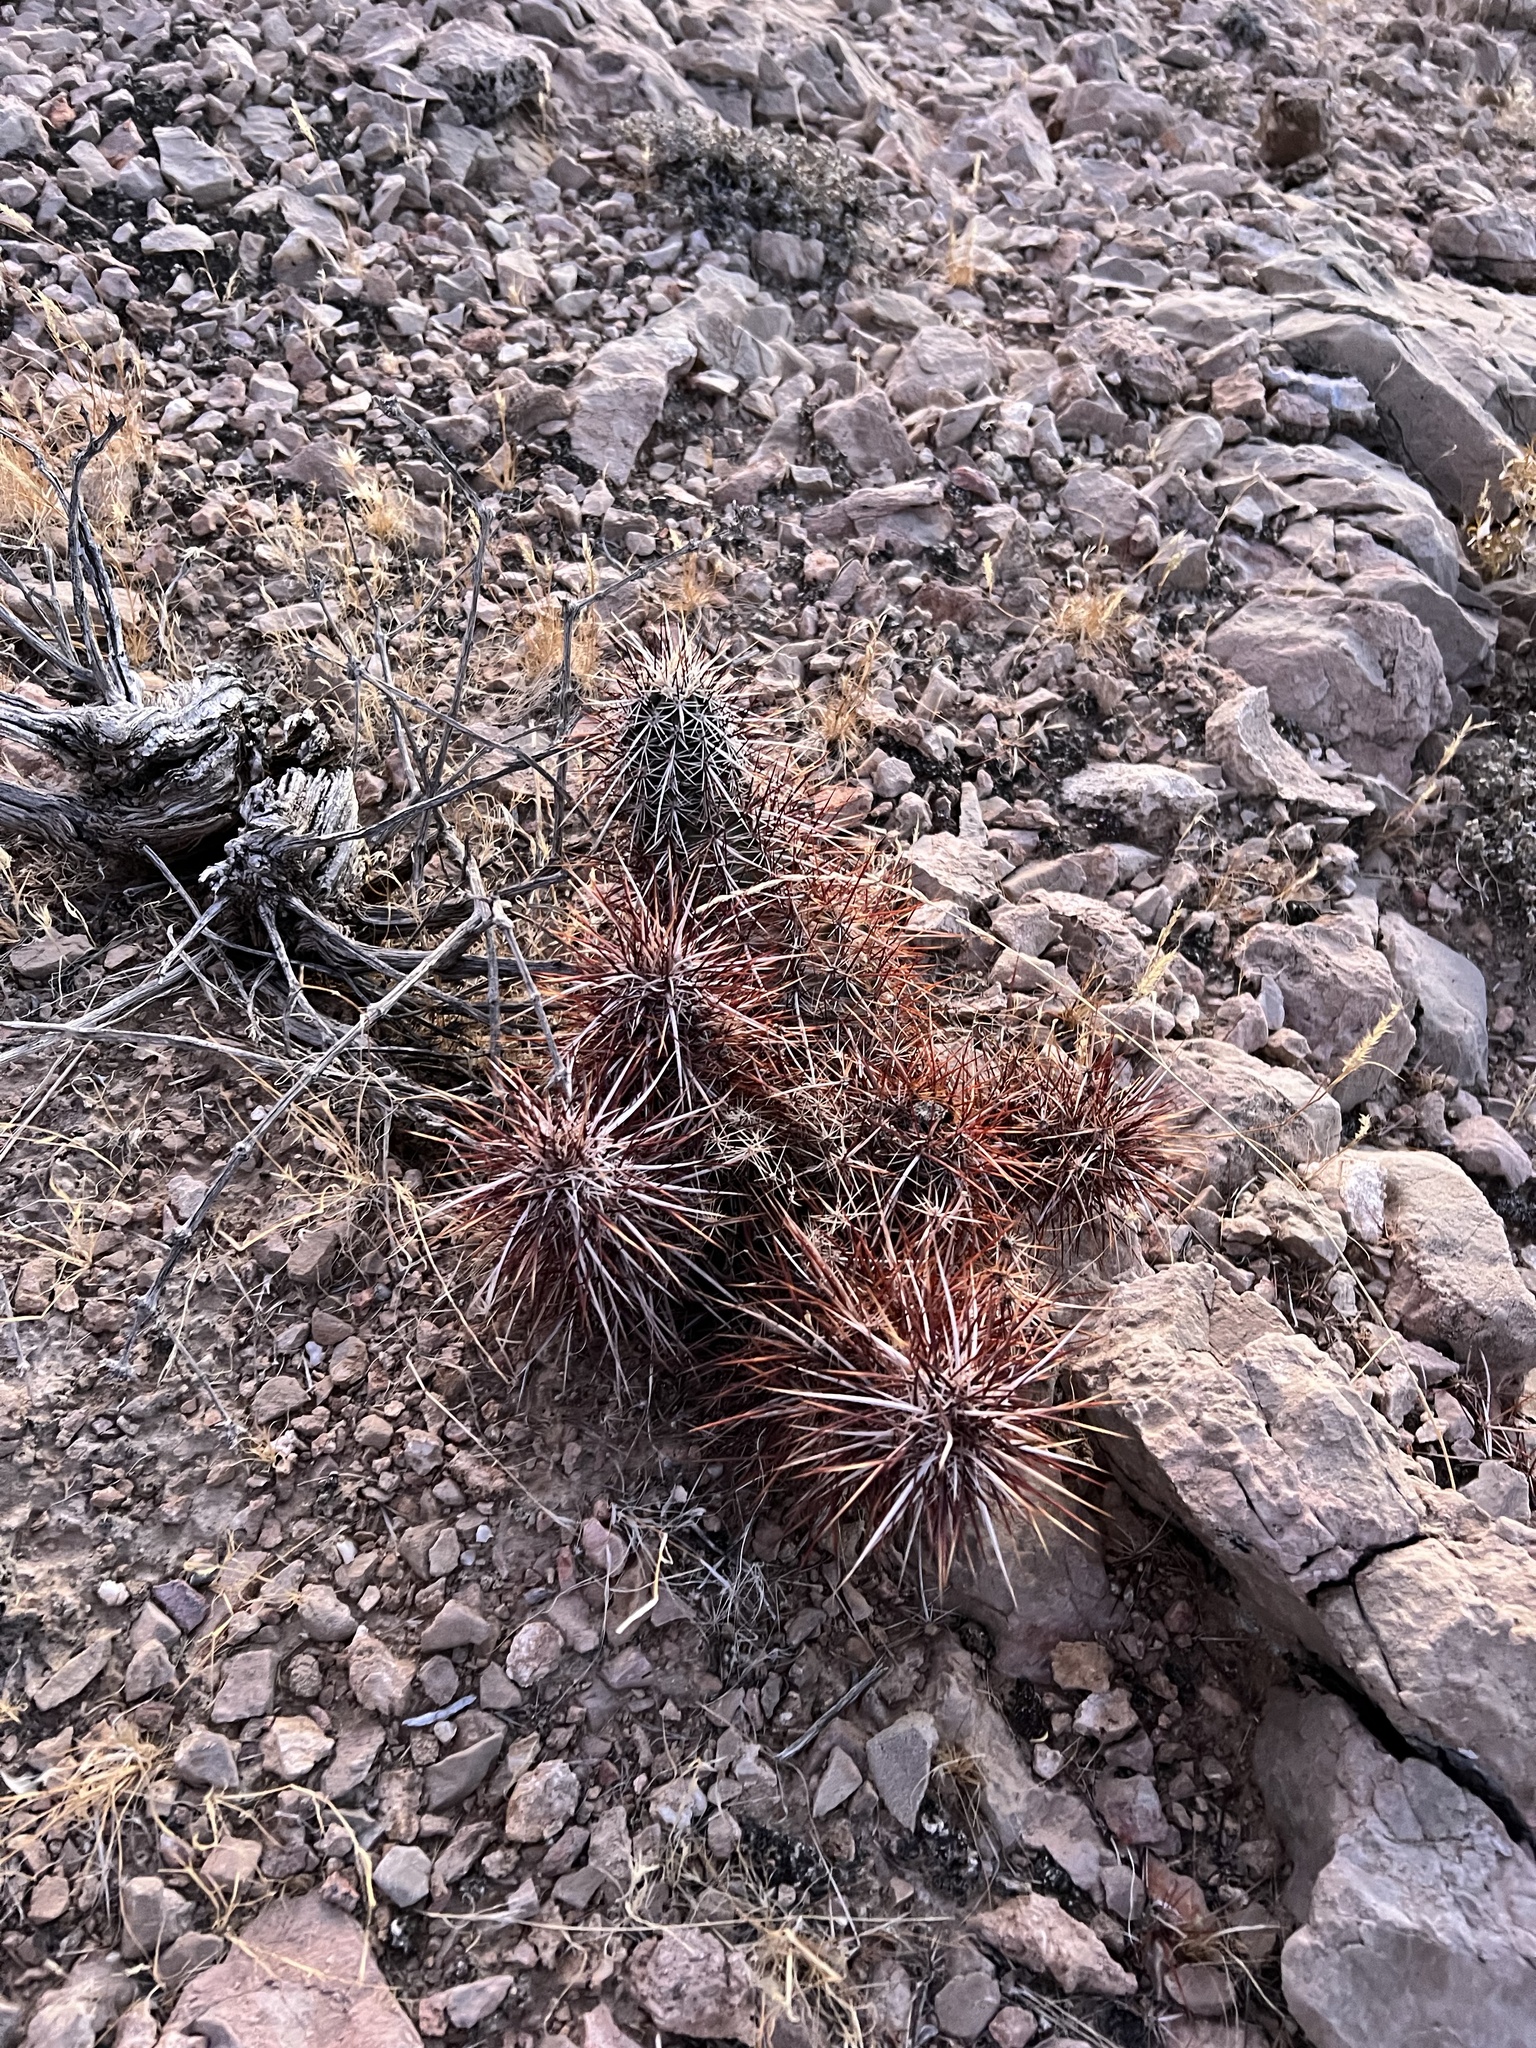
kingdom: Plantae
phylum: Tracheophyta
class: Magnoliopsida
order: Caryophyllales
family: Cactaceae
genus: Echinocereus
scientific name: Echinocereus engelmannii
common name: Engelmann's hedgehog cactus
